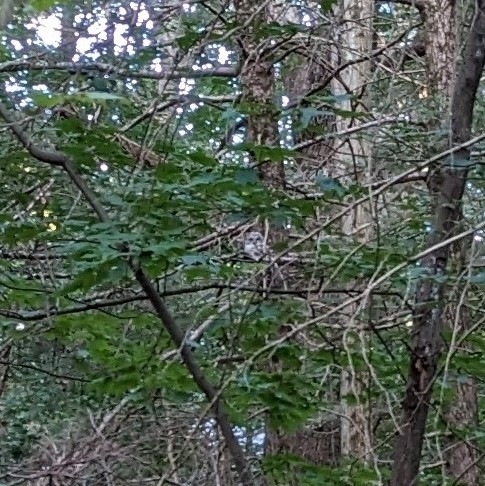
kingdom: Animalia
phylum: Chordata
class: Aves
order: Strigiformes
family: Strigidae
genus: Strix
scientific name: Strix varia
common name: Barred owl
